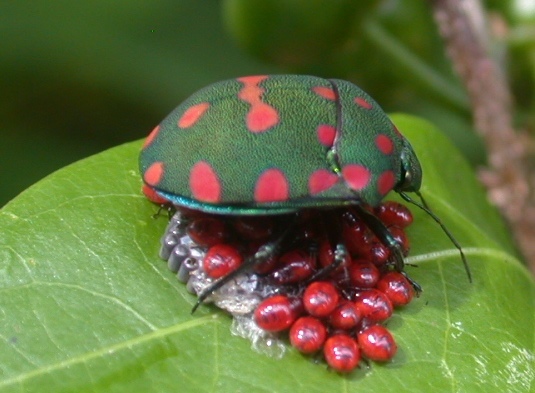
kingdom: Animalia
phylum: Arthropoda
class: Insecta
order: Hemiptera
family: Scutelleridae
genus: Pachycoris
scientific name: Pachycoris torridus
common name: Torrid jewel bug
